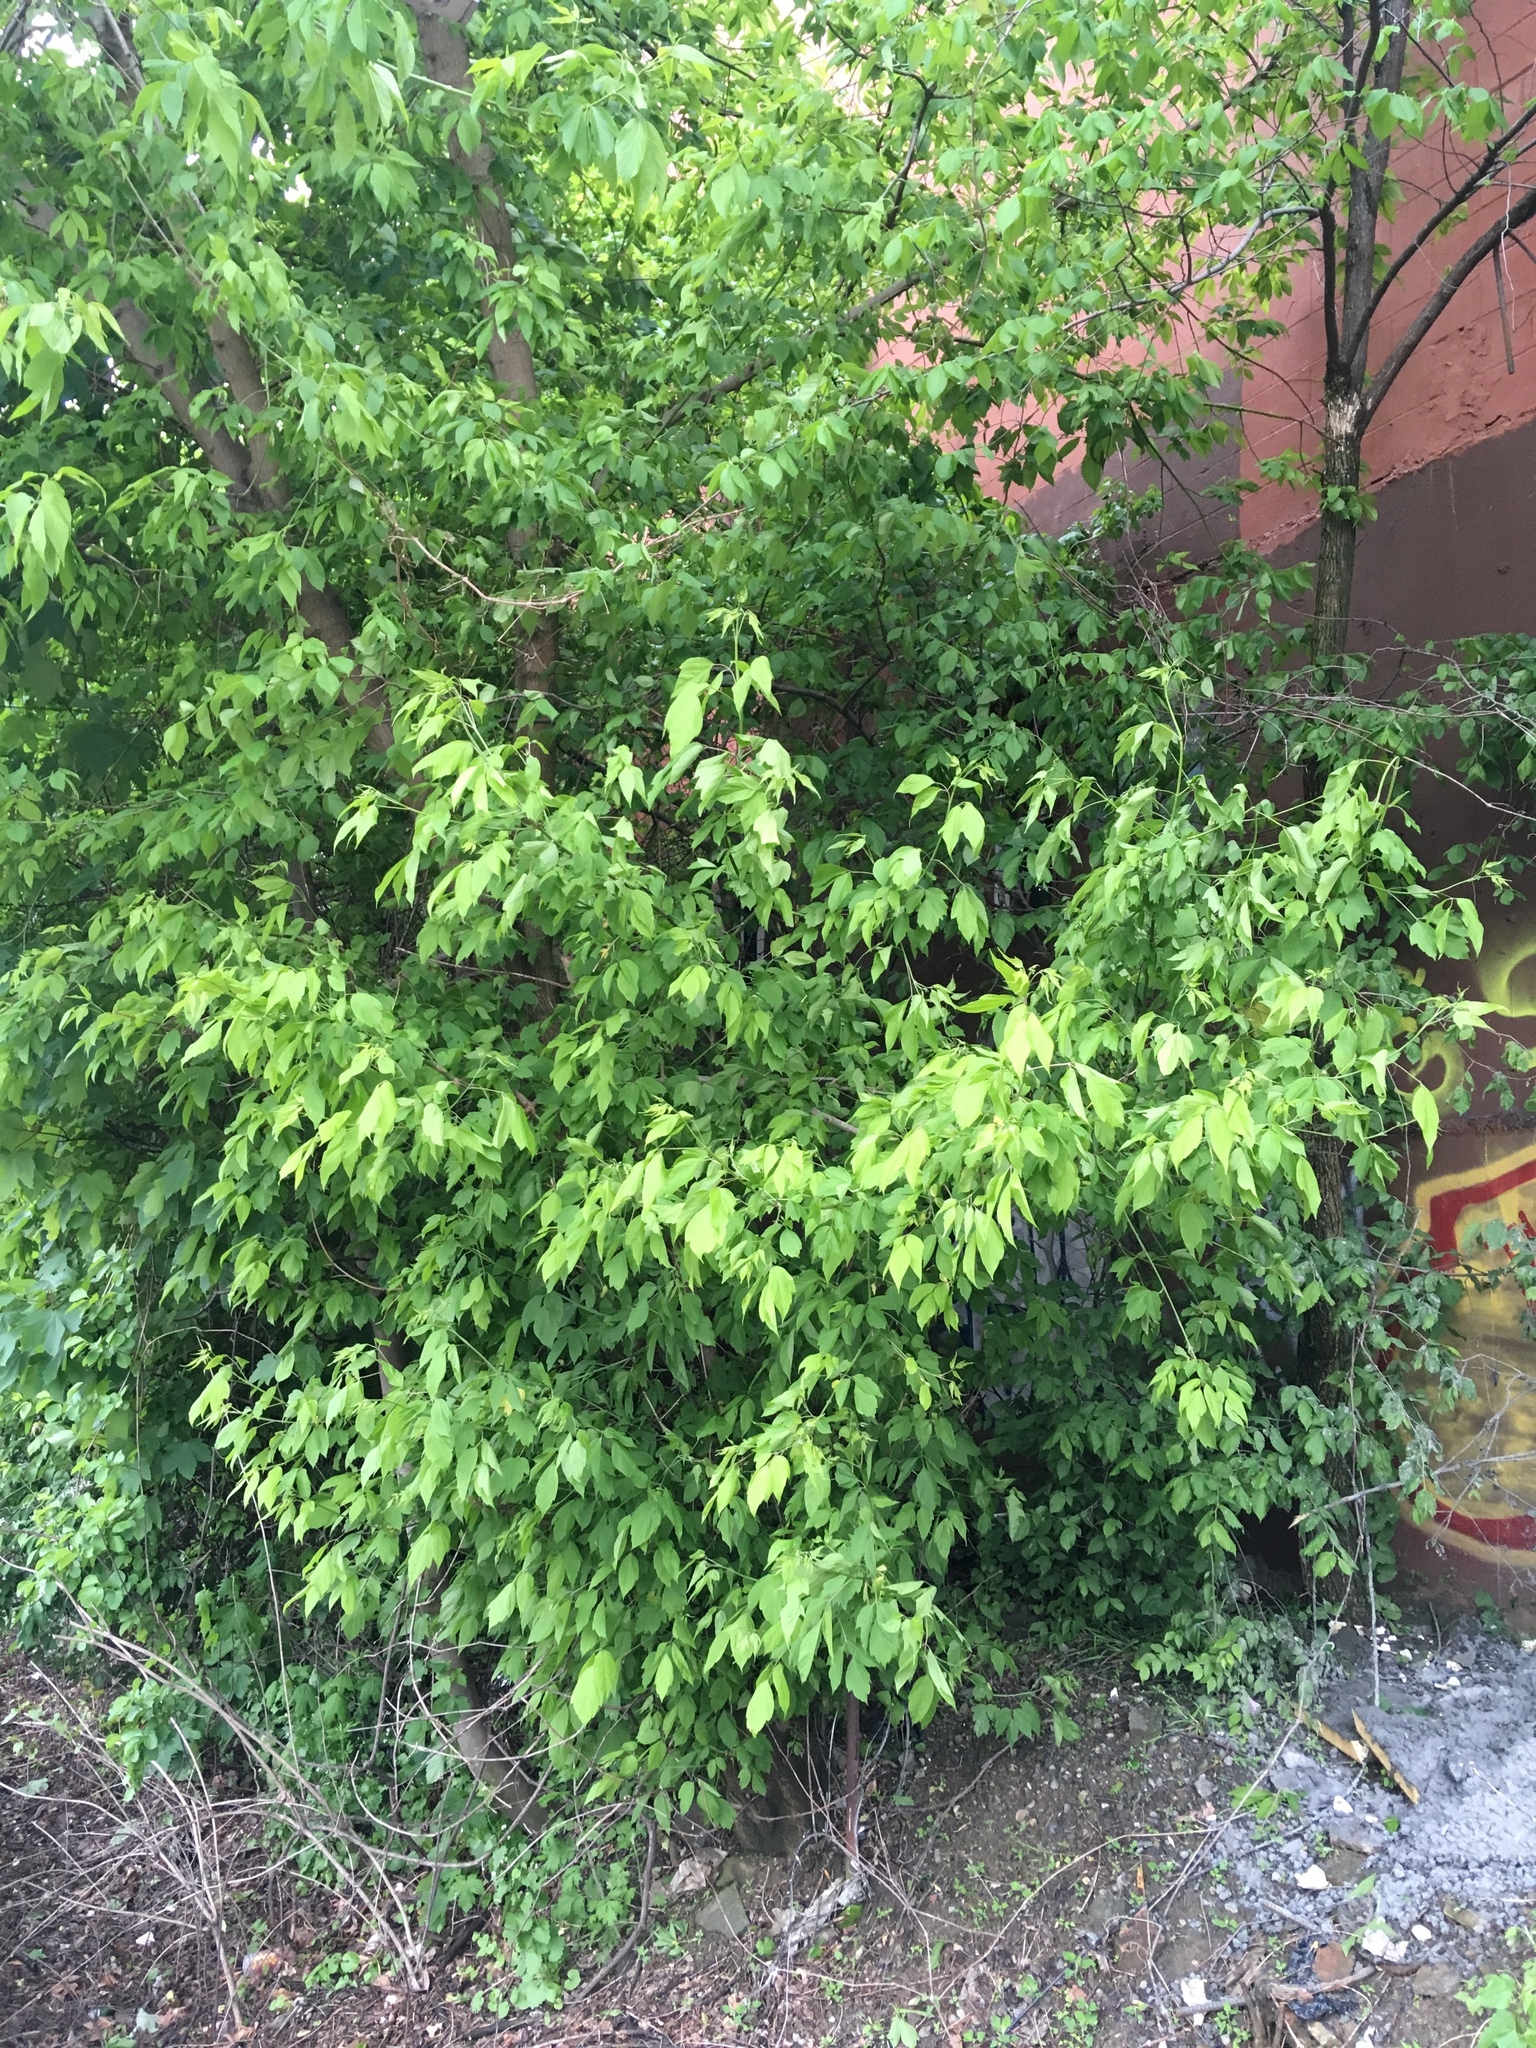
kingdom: Plantae
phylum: Tracheophyta
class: Magnoliopsida
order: Sapindales
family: Sapindaceae
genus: Acer
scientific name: Acer negundo
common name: Ashleaf maple
